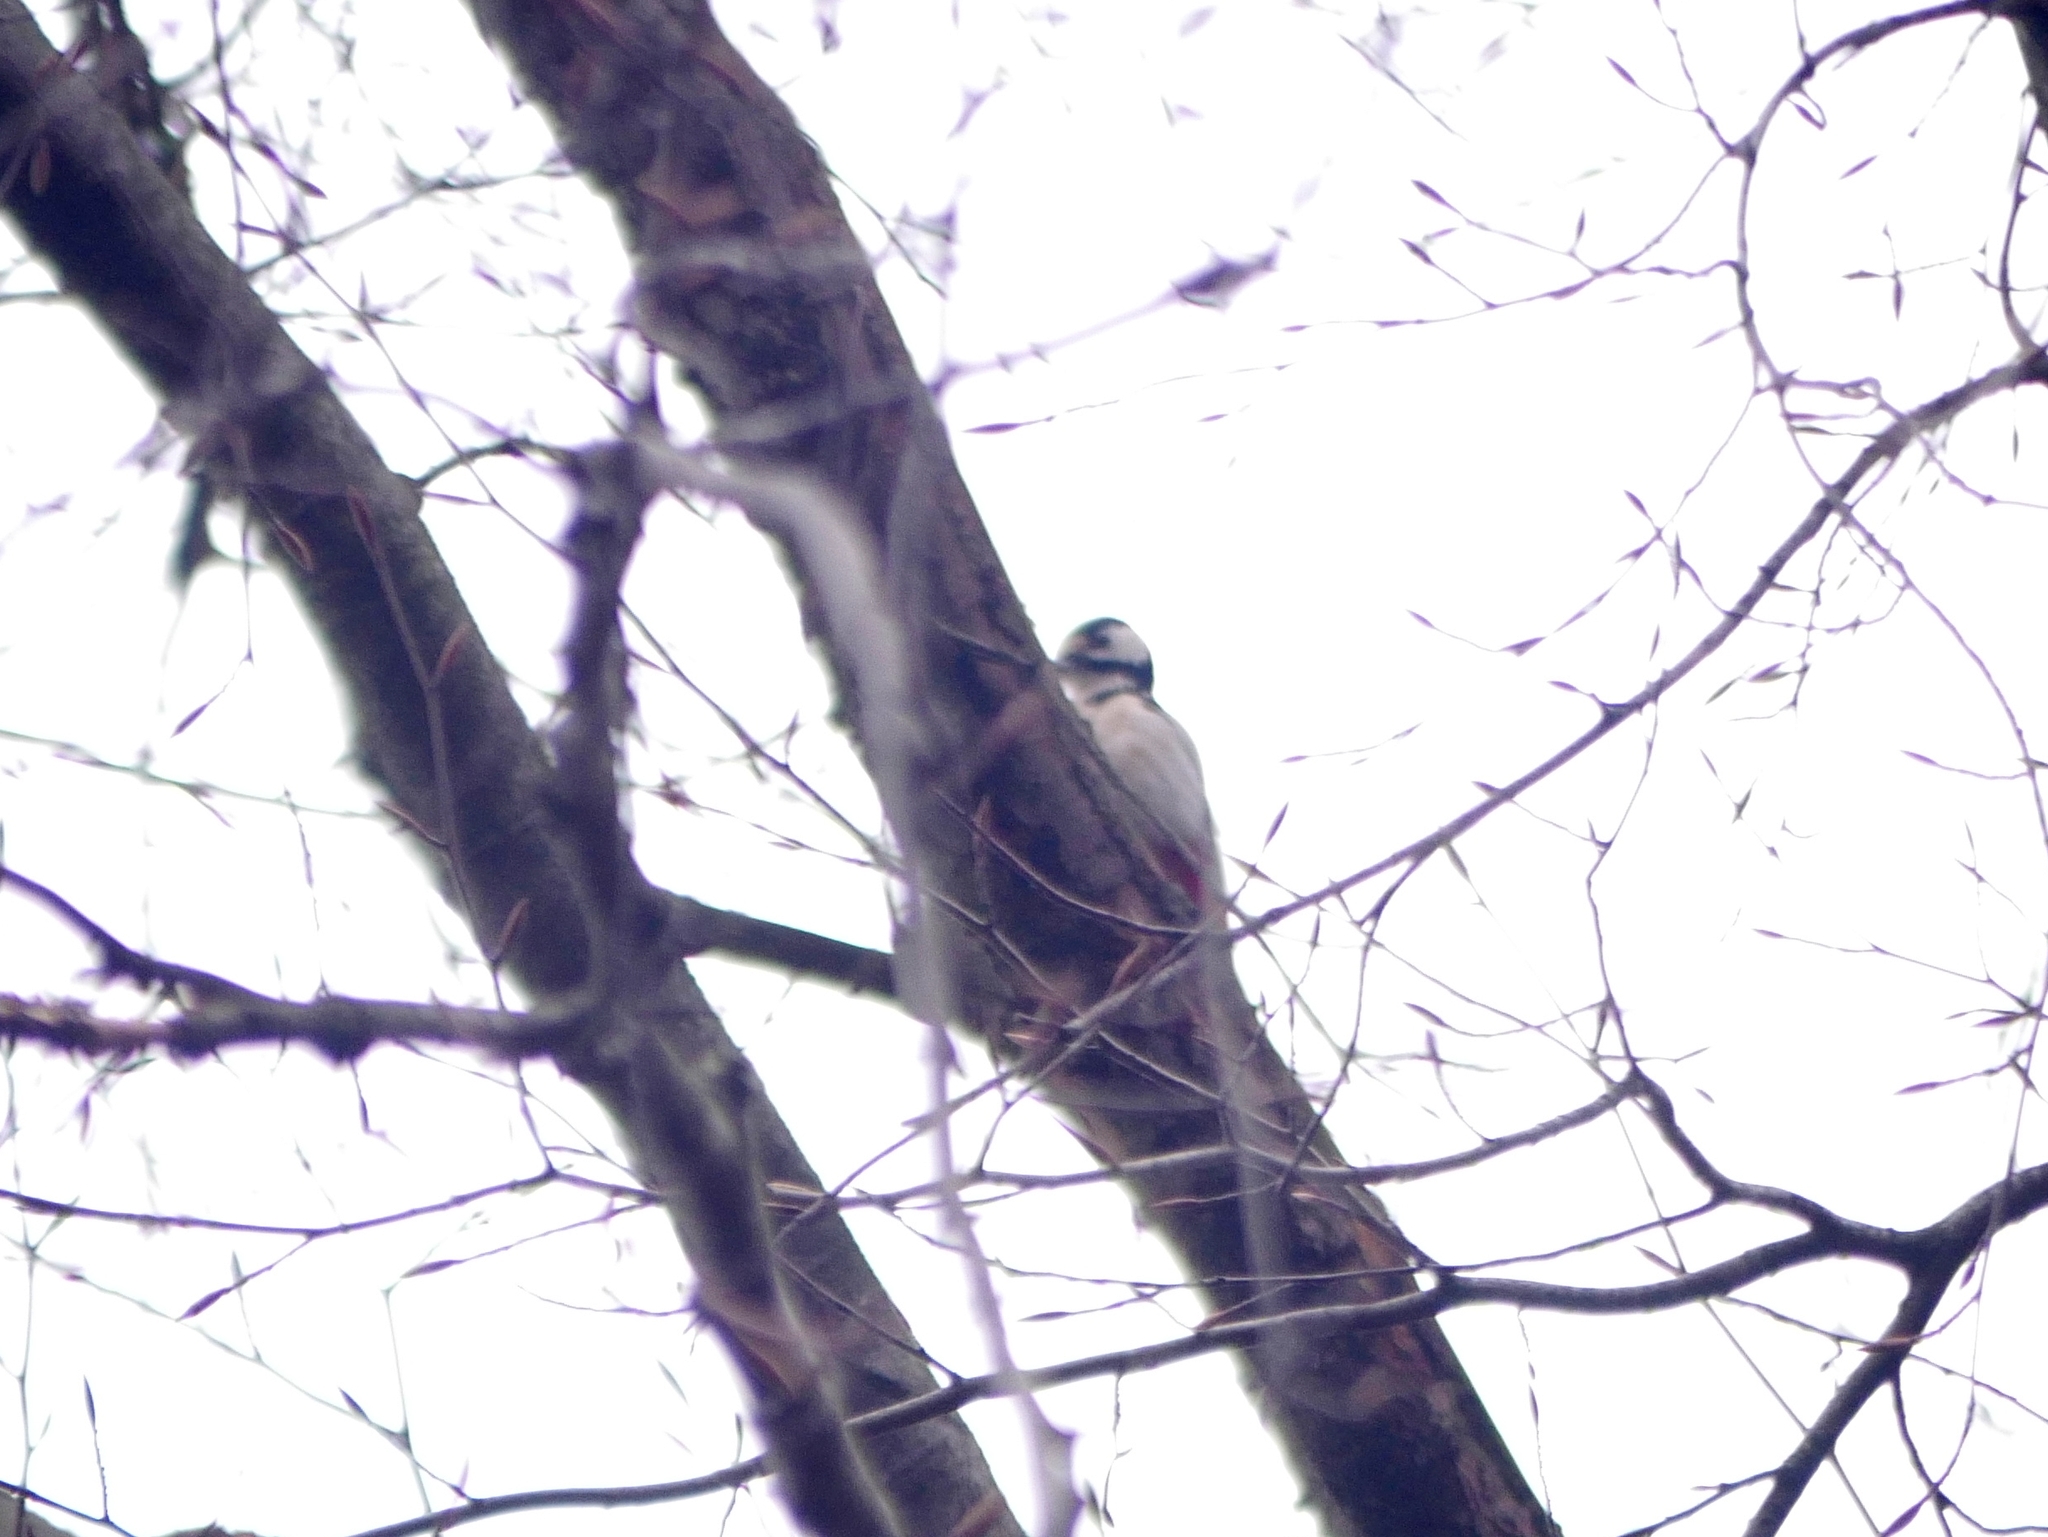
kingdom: Animalia
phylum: Chordata
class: Aves
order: Piciformes
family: Picidae
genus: Dendrocopos
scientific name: Dendrocopos major
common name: Great spotted woodpecker
